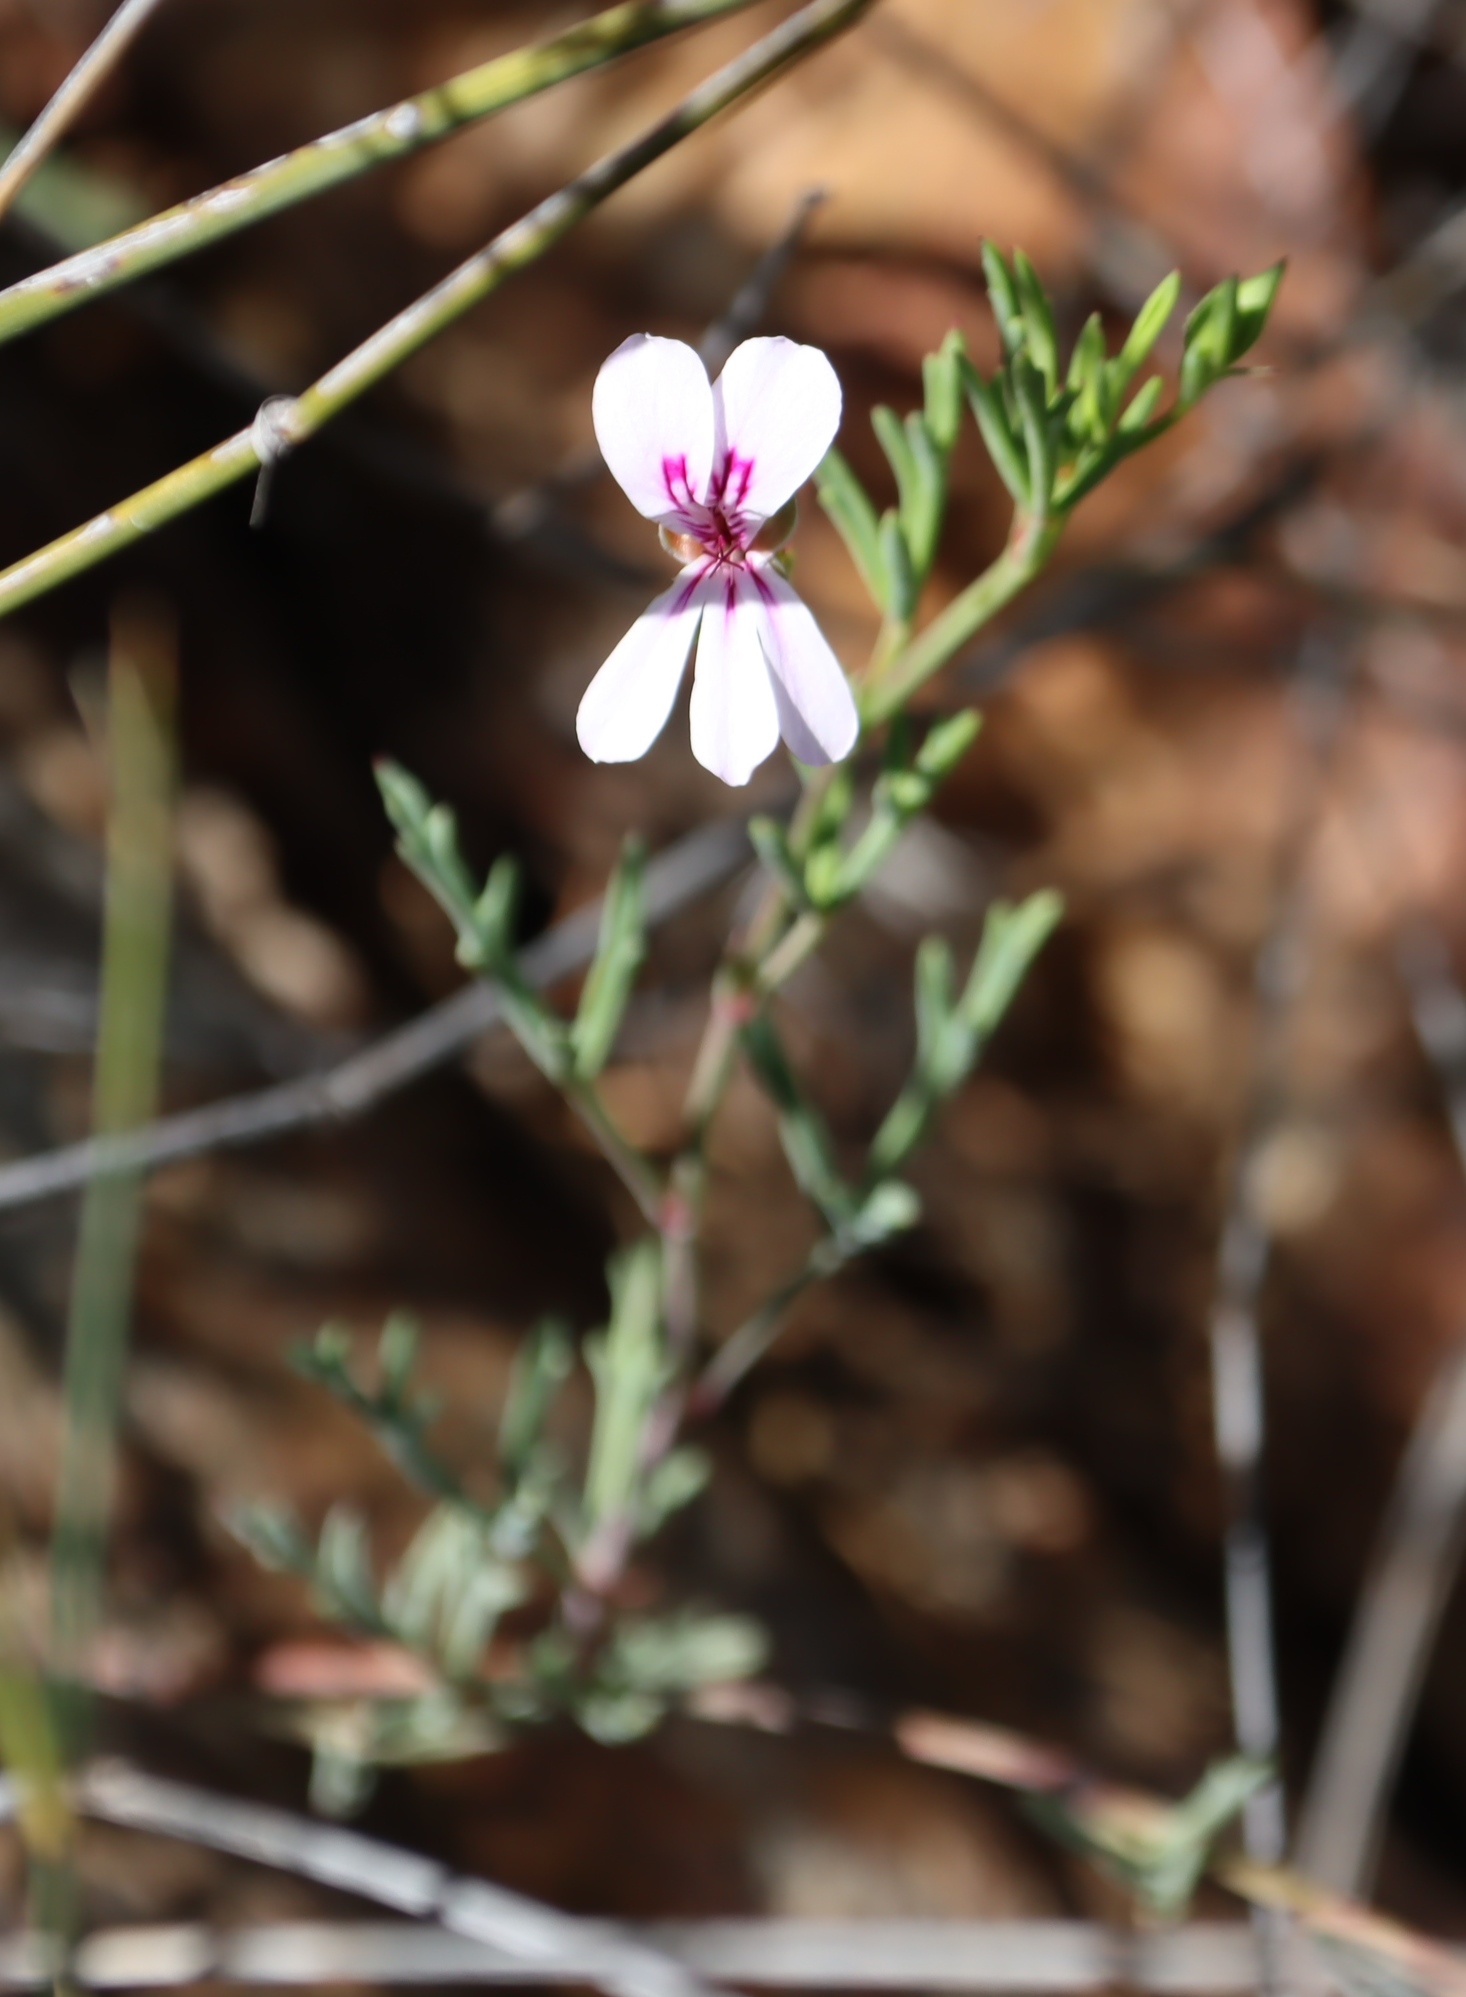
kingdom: Plantae
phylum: Tracheophyta
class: Magnoliopsida
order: Geraniales
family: Geraniaceae
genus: Pelargonium
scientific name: Pelargonium laevigatum
